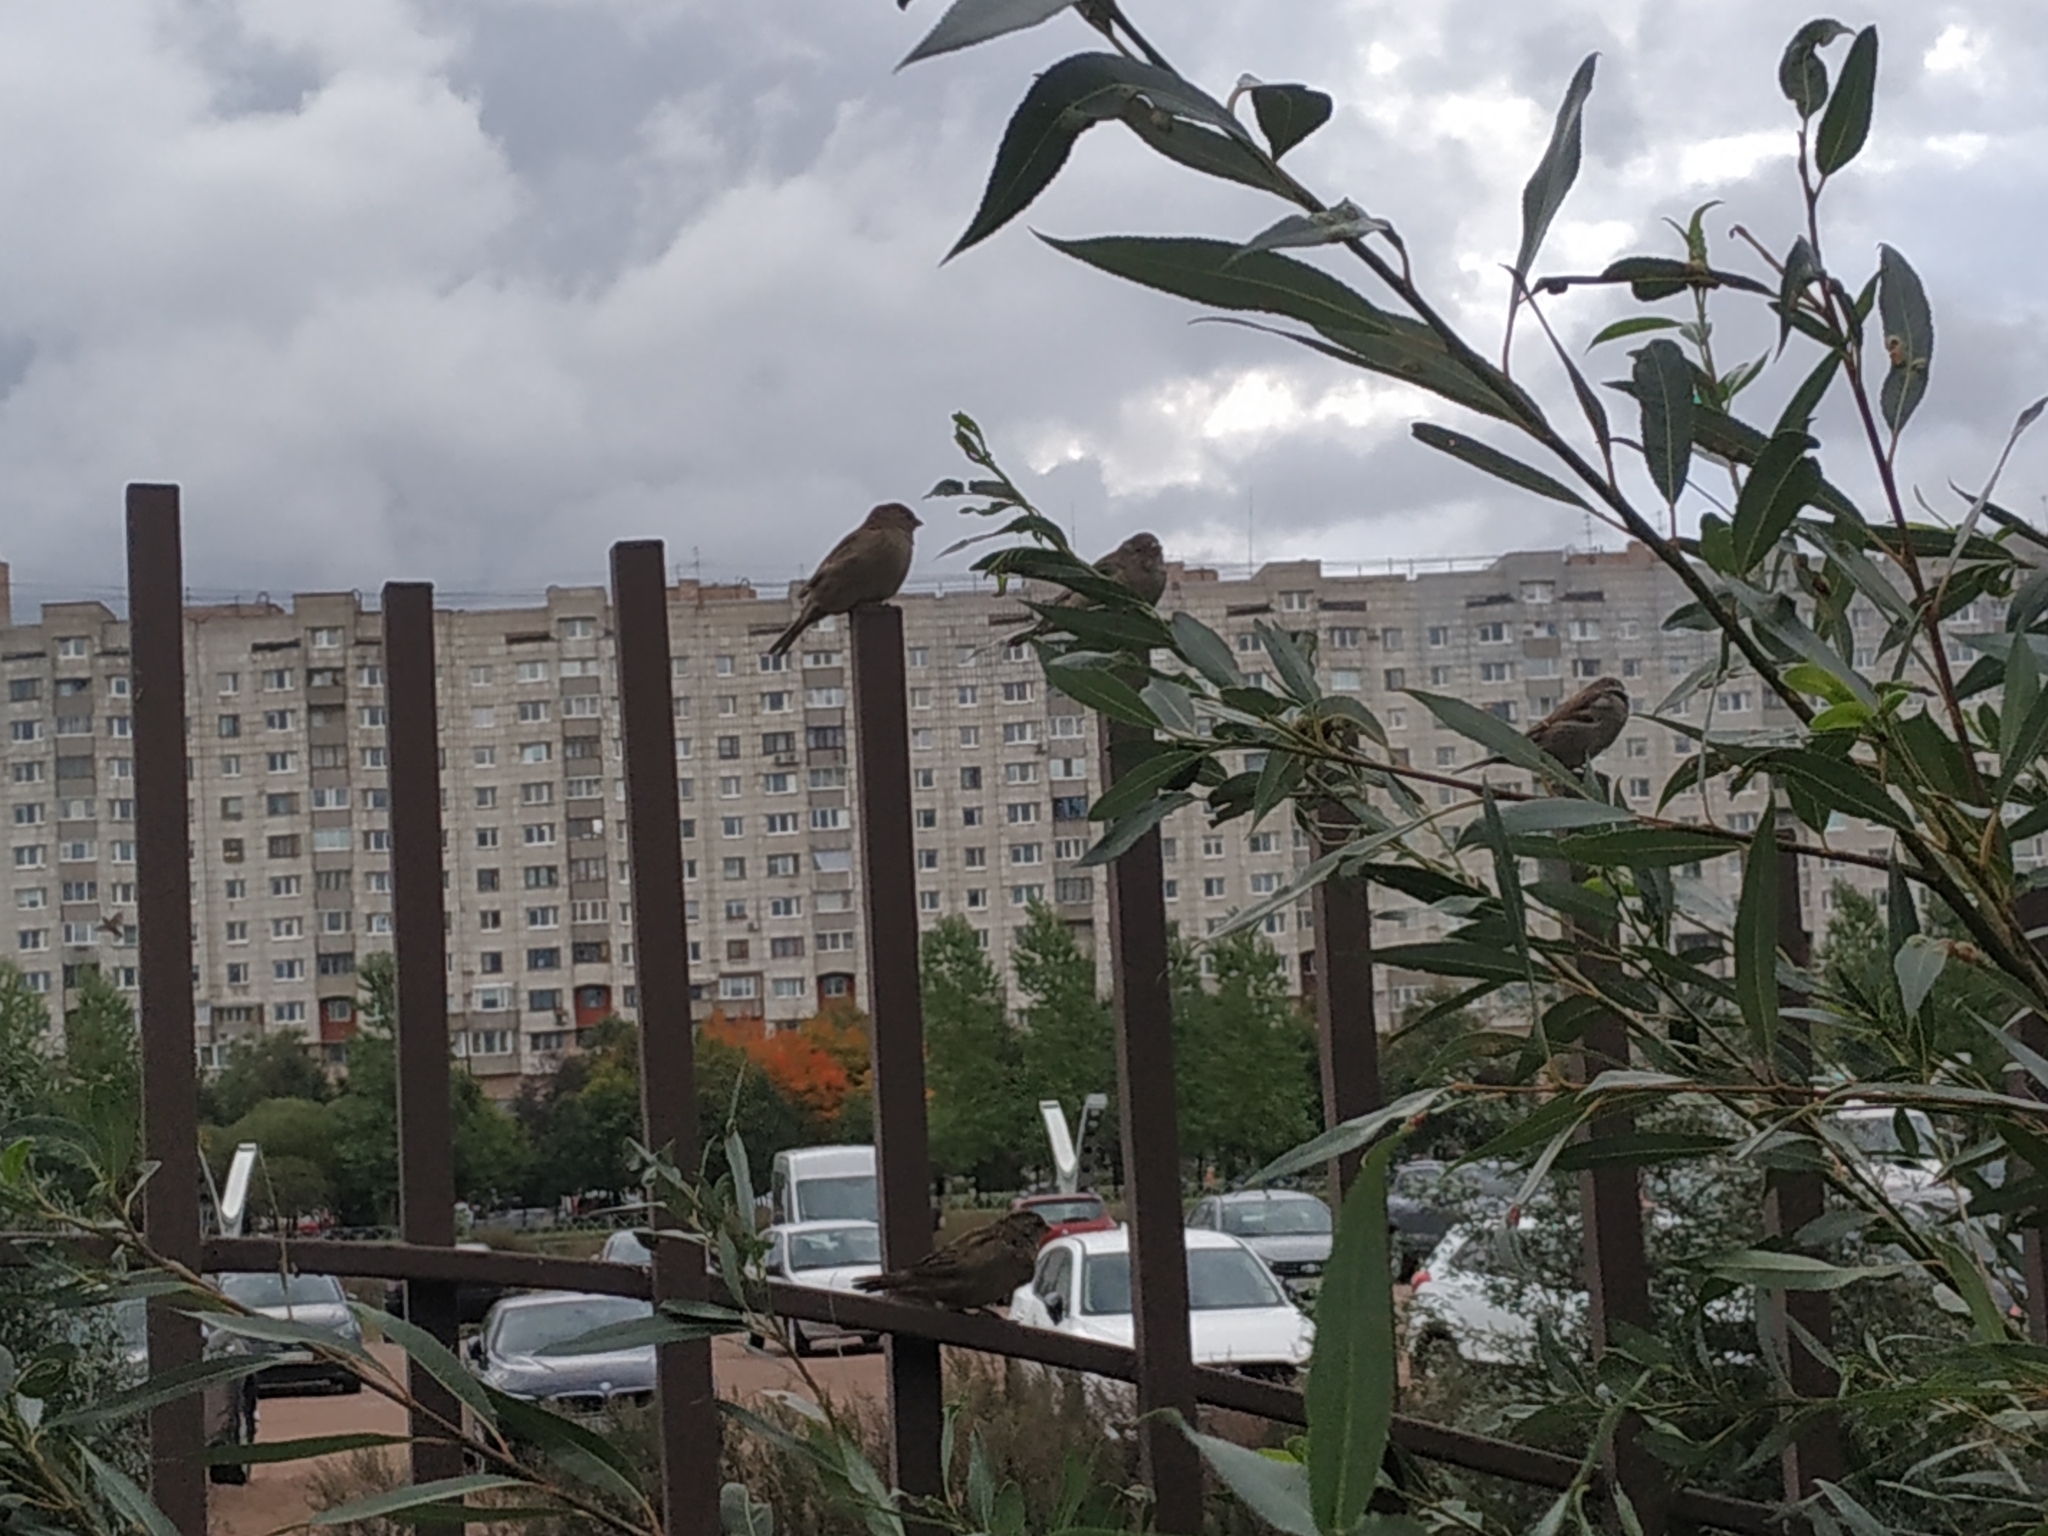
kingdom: Animalia
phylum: Chordata
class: Aves
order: Passeriformes
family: Passeridae
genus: Passer
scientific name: Passer domesticus
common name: House sparrow
